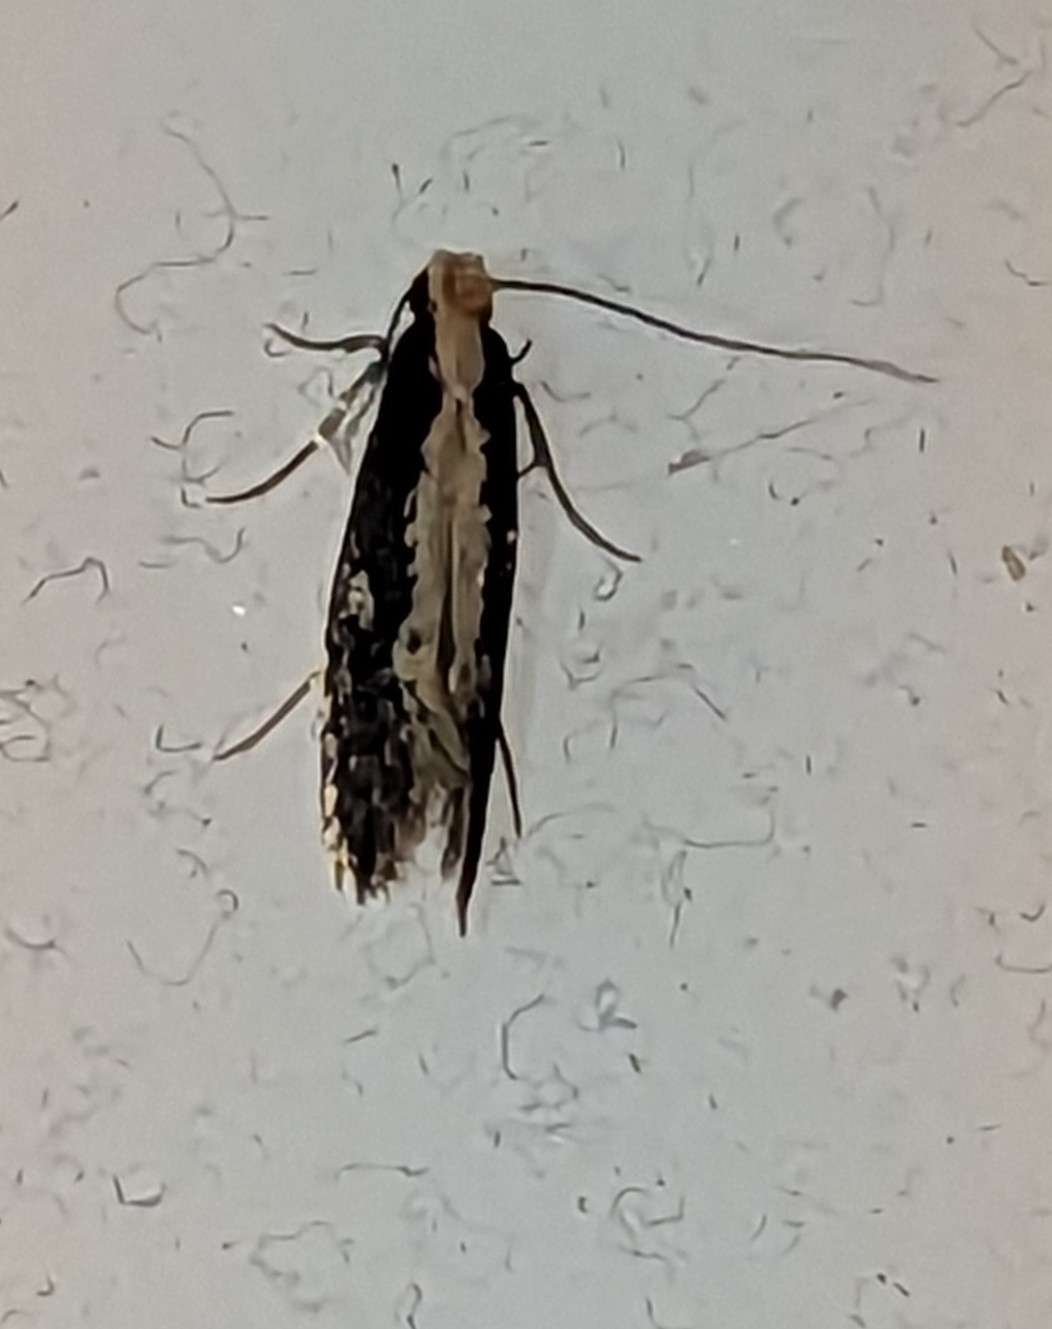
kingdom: Animalia
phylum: Arthropoda
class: Insecta
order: Lepidoptera
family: Tineidae
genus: Monopis
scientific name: Monopis crocicapitella
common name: Moth
